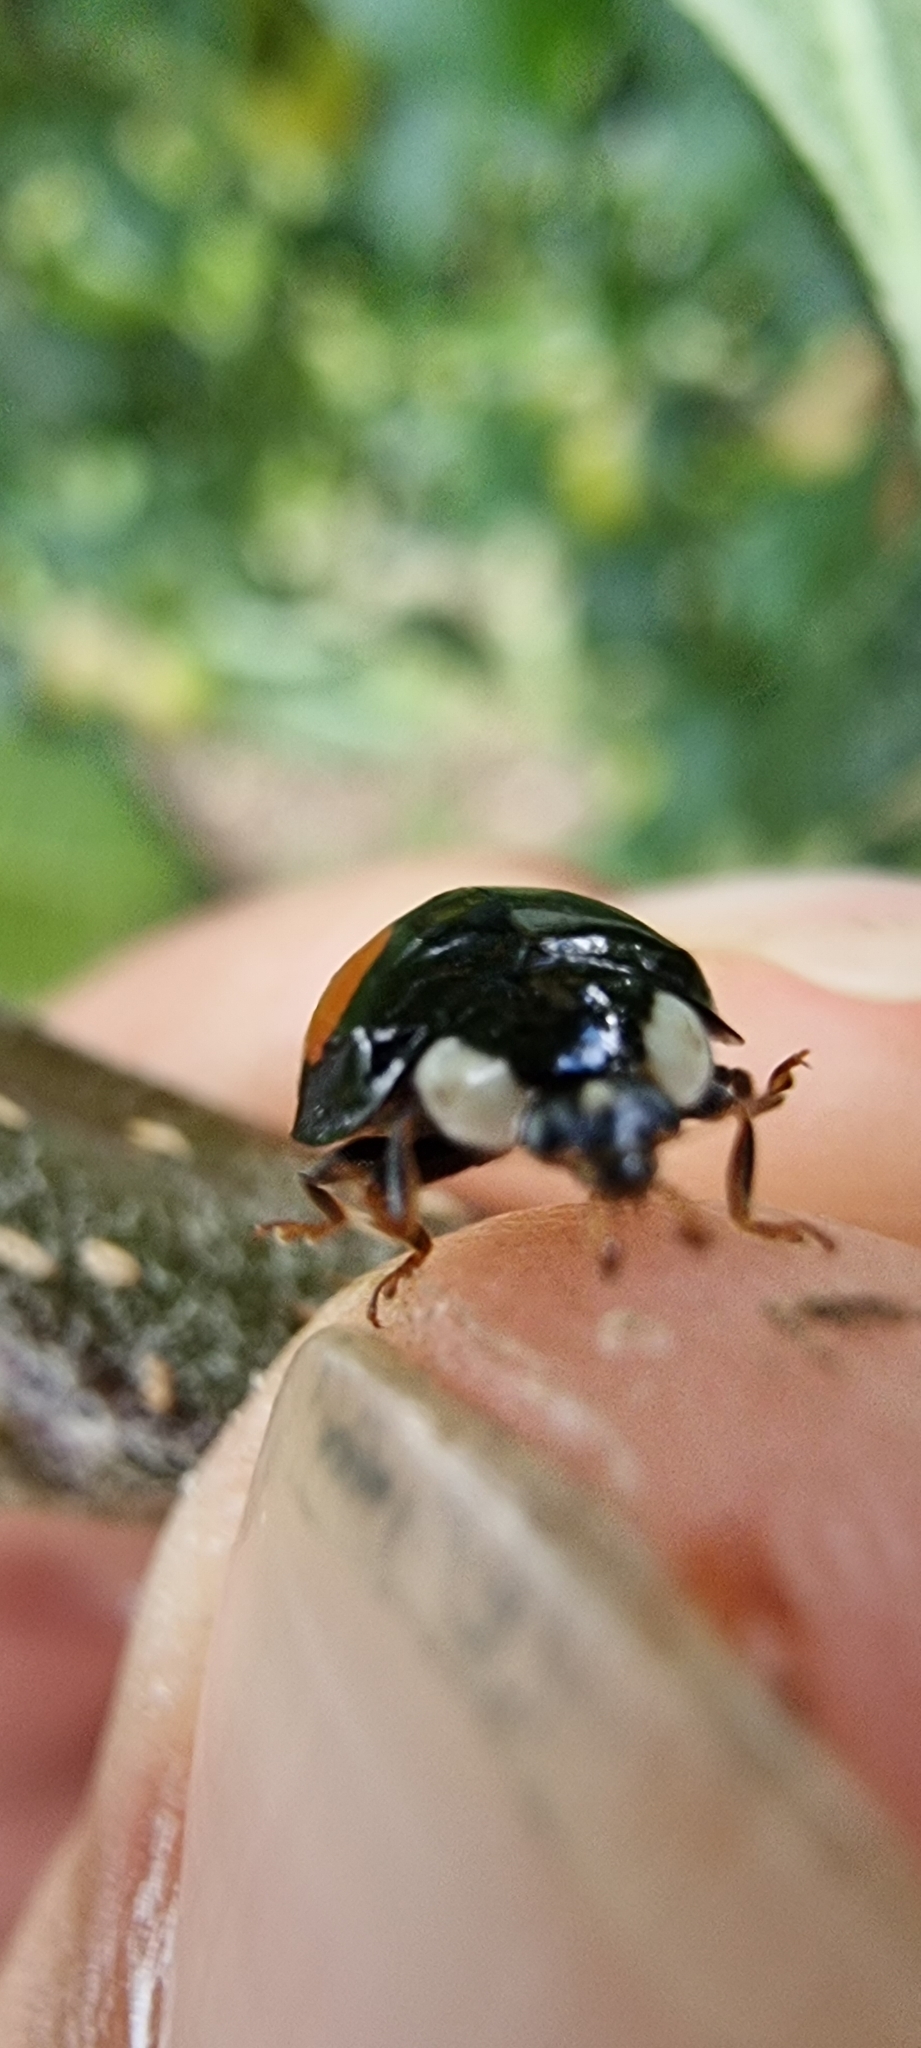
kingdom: Animalia
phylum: Arthropoda
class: Insecta
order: Coleoptera
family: Coccinellidae
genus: Harmonia
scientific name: Harmonia axyridis
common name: Harlequin ladybird
